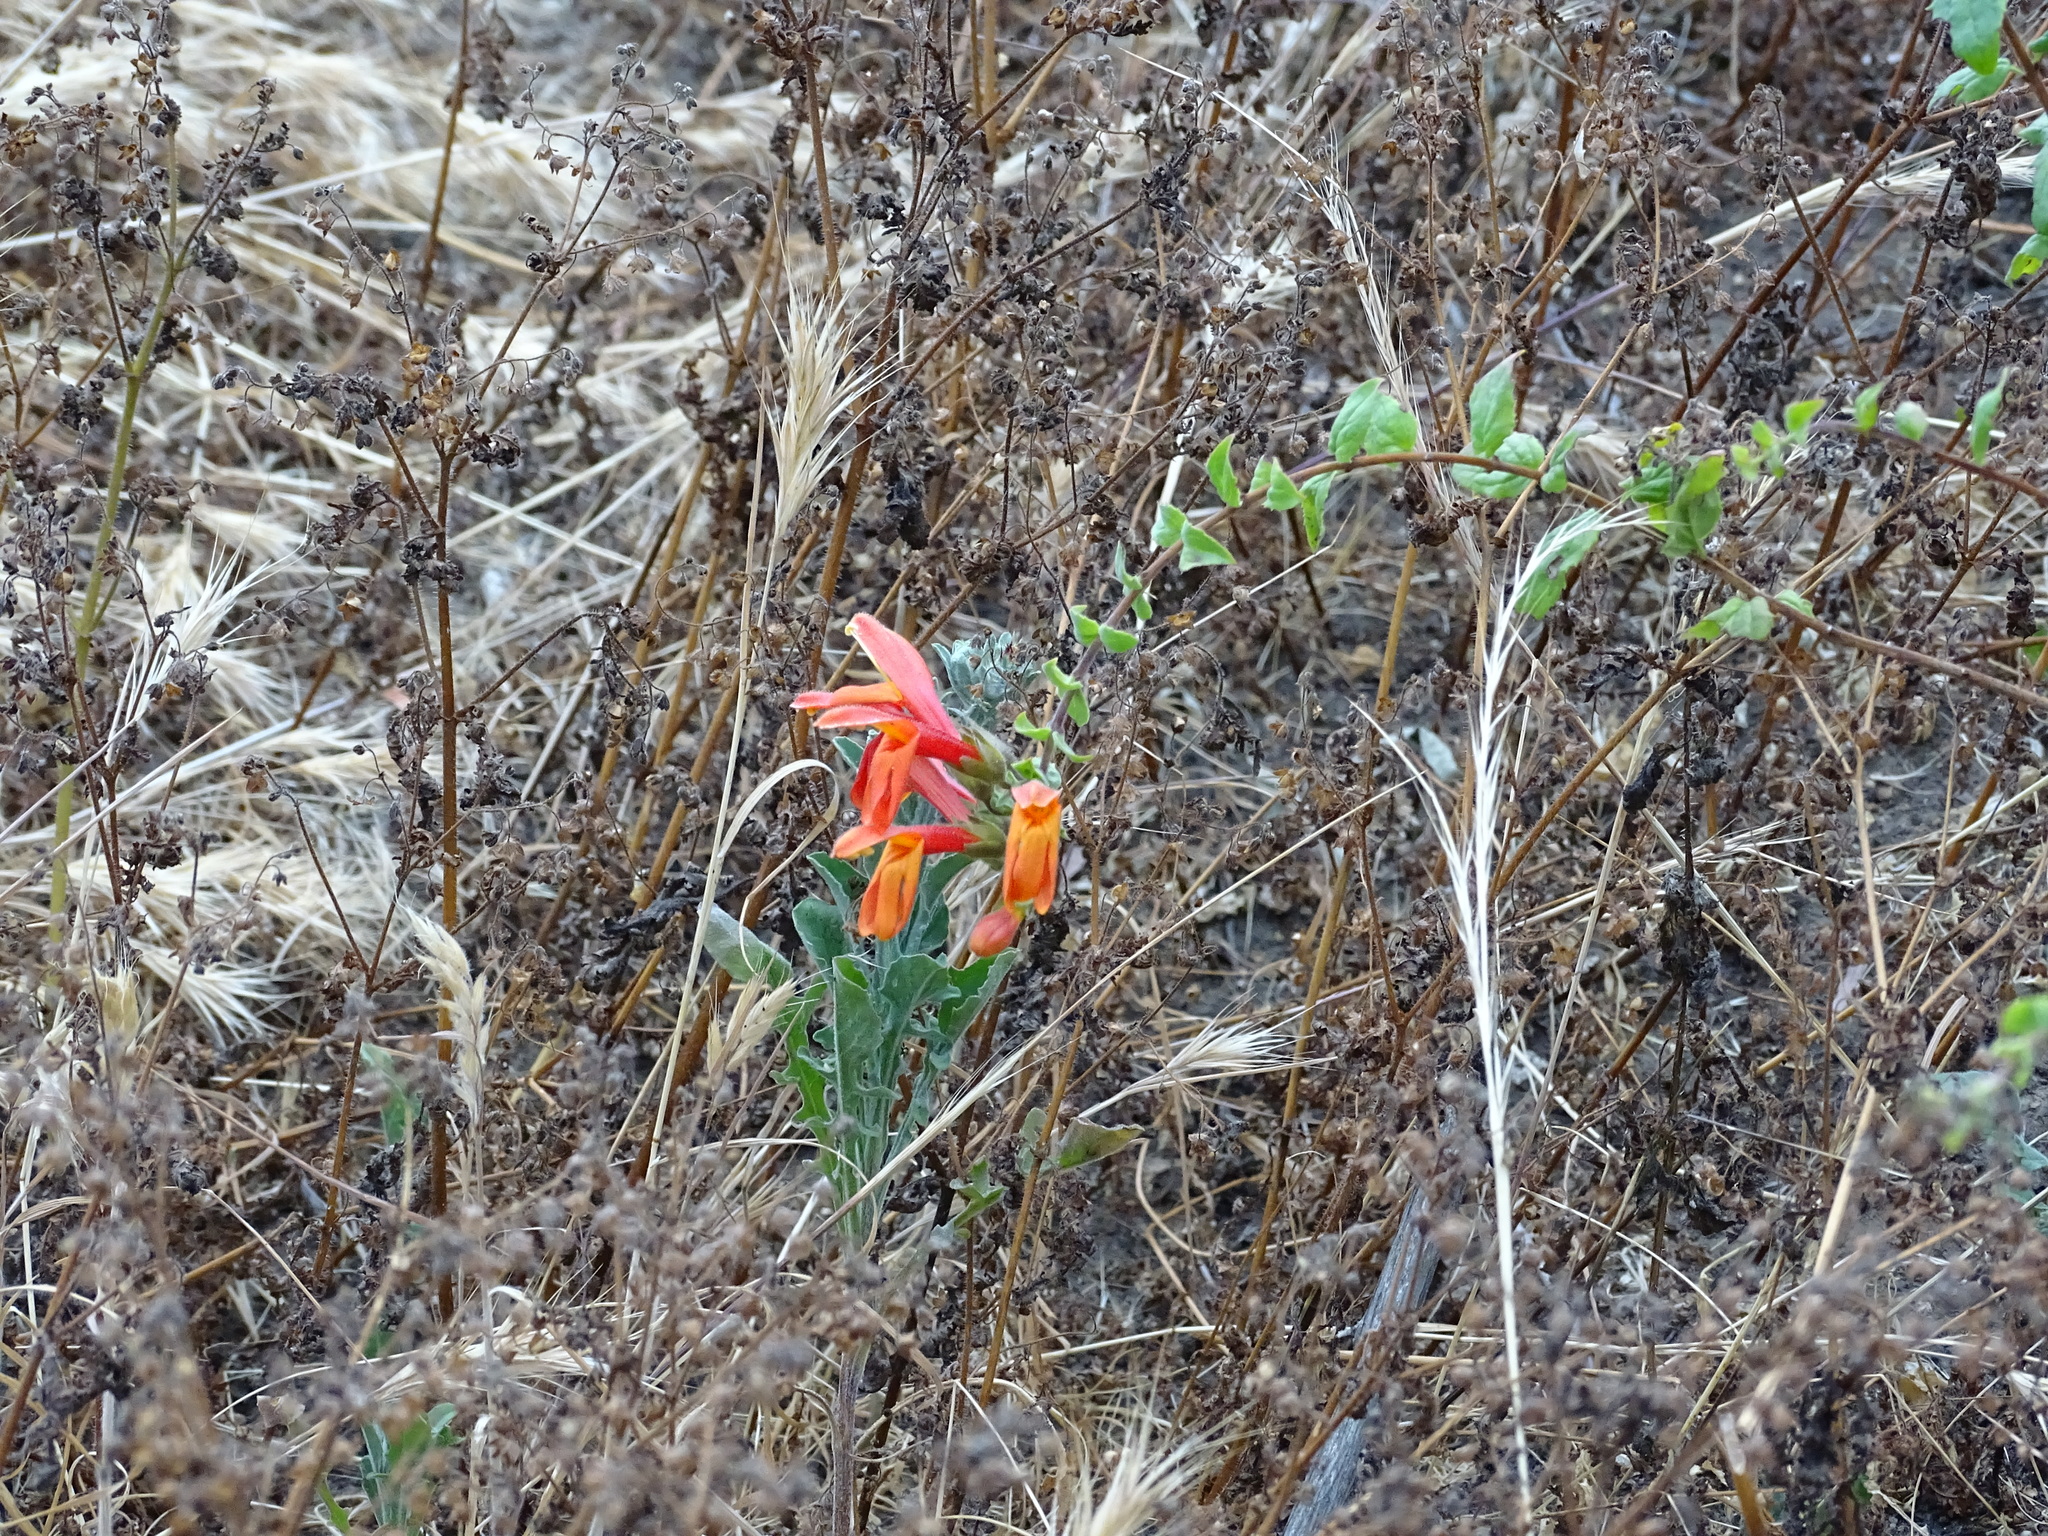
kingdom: Plantae
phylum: Tracheophyta
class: Magnoliopsida
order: Lamiales
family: Plantaginaceae
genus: Keckiella
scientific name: Keckiella cordifolia
